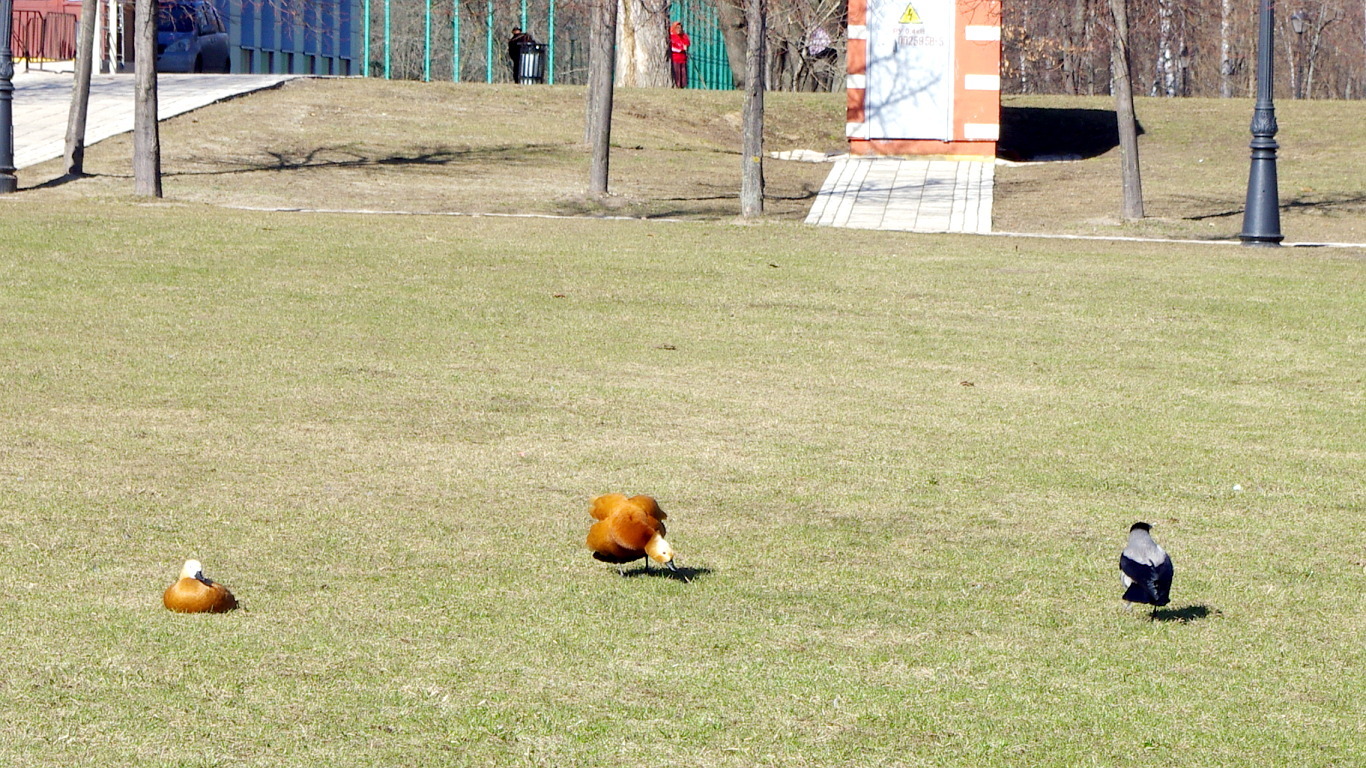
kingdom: Animalia
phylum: Chordata
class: Aves
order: Anseriformes
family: Anatidae
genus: Tadorna
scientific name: Tadorna ferruginea
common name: Ruddy shelduck
